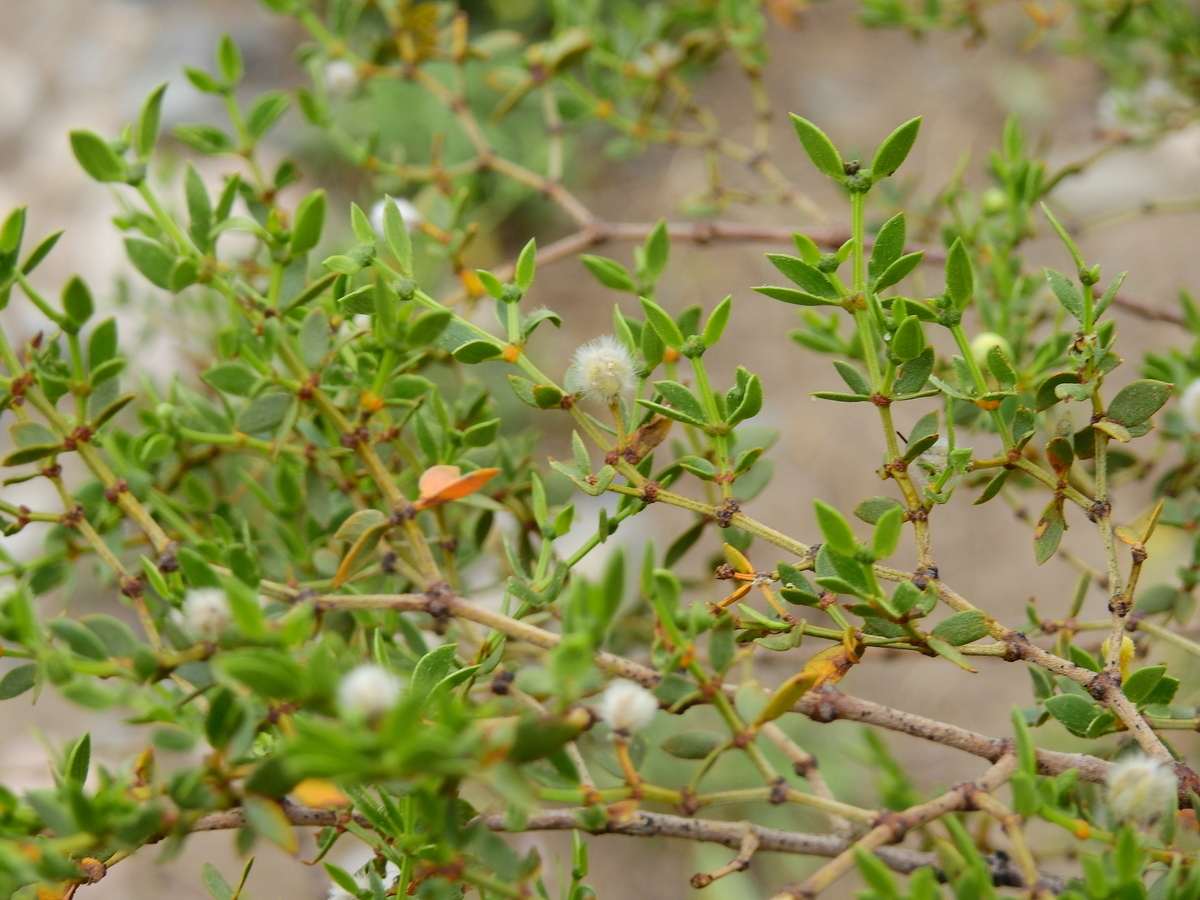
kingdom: Plantae
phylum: Tracheophyta
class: Magnoliopsida
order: Zygophyllales
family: Zygophyllaceae
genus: Larrea
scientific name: Larrea divaricata
